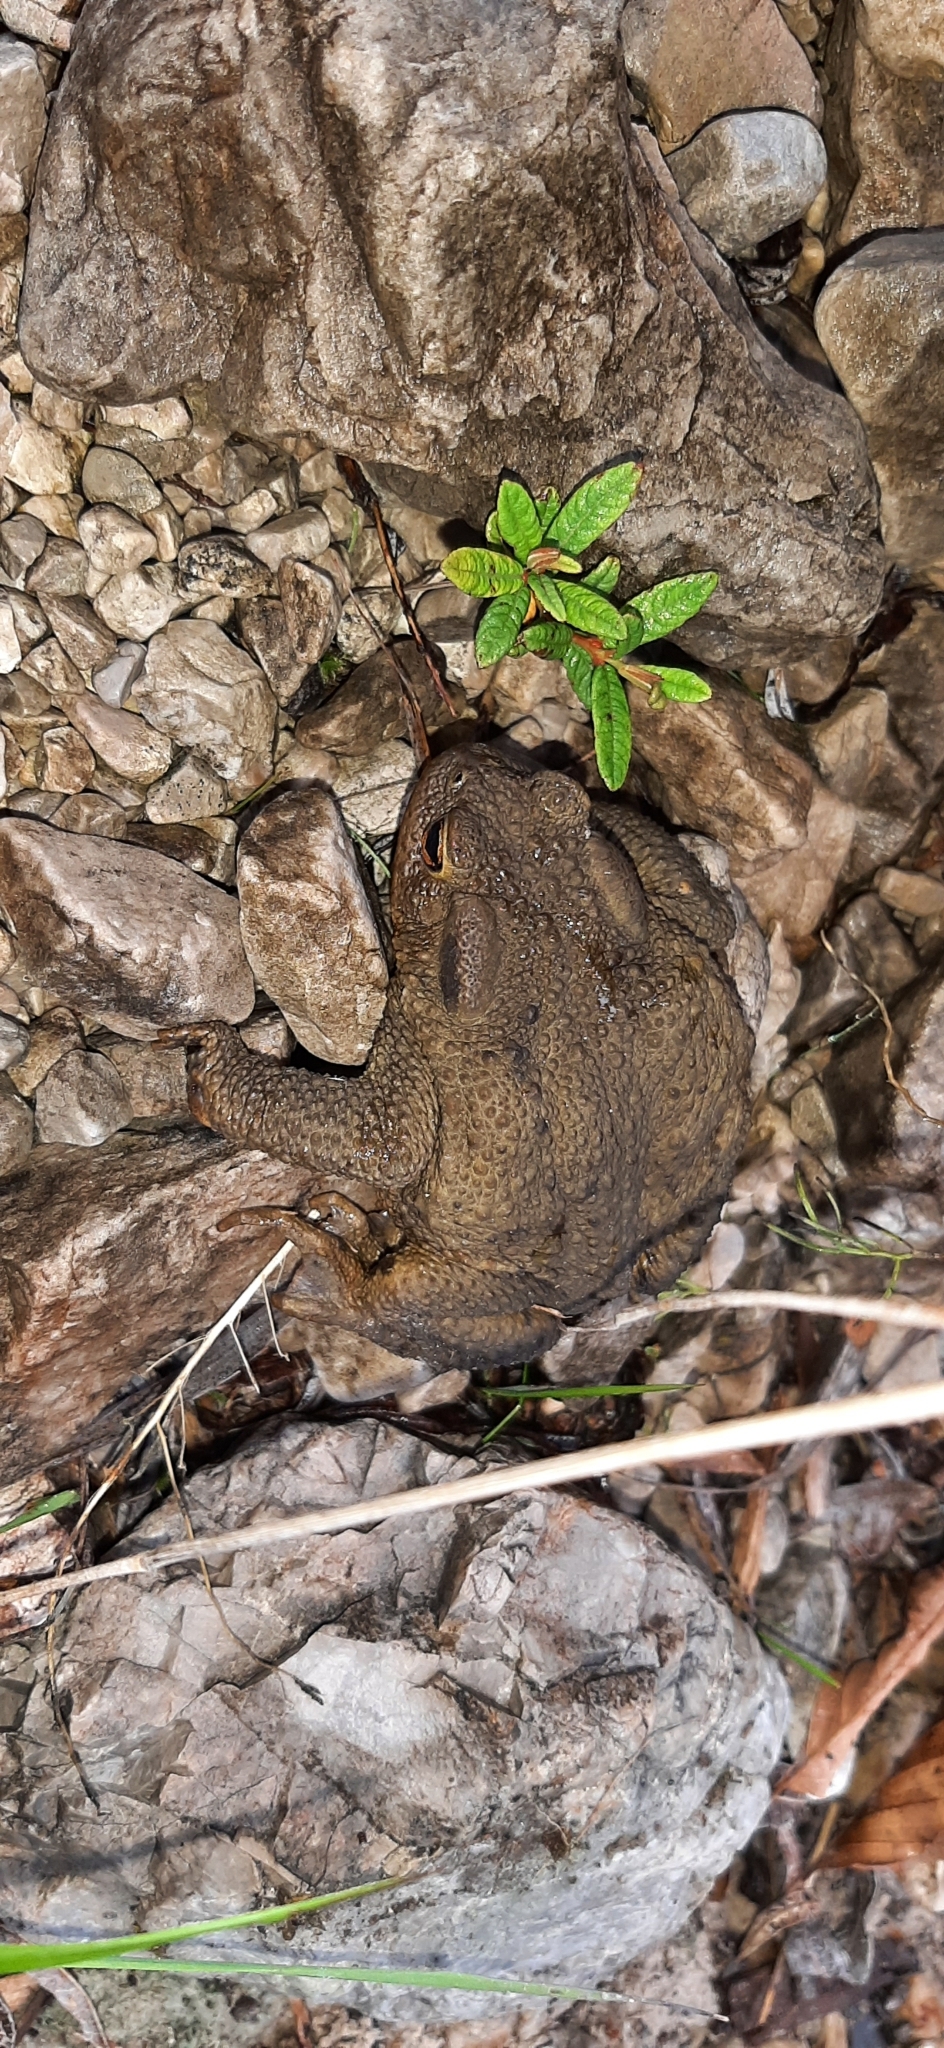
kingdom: Animalia
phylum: Chordata
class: Amphibia
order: Anura
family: Bufonidae
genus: Bufo
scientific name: Bufo bufo
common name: Common toad
